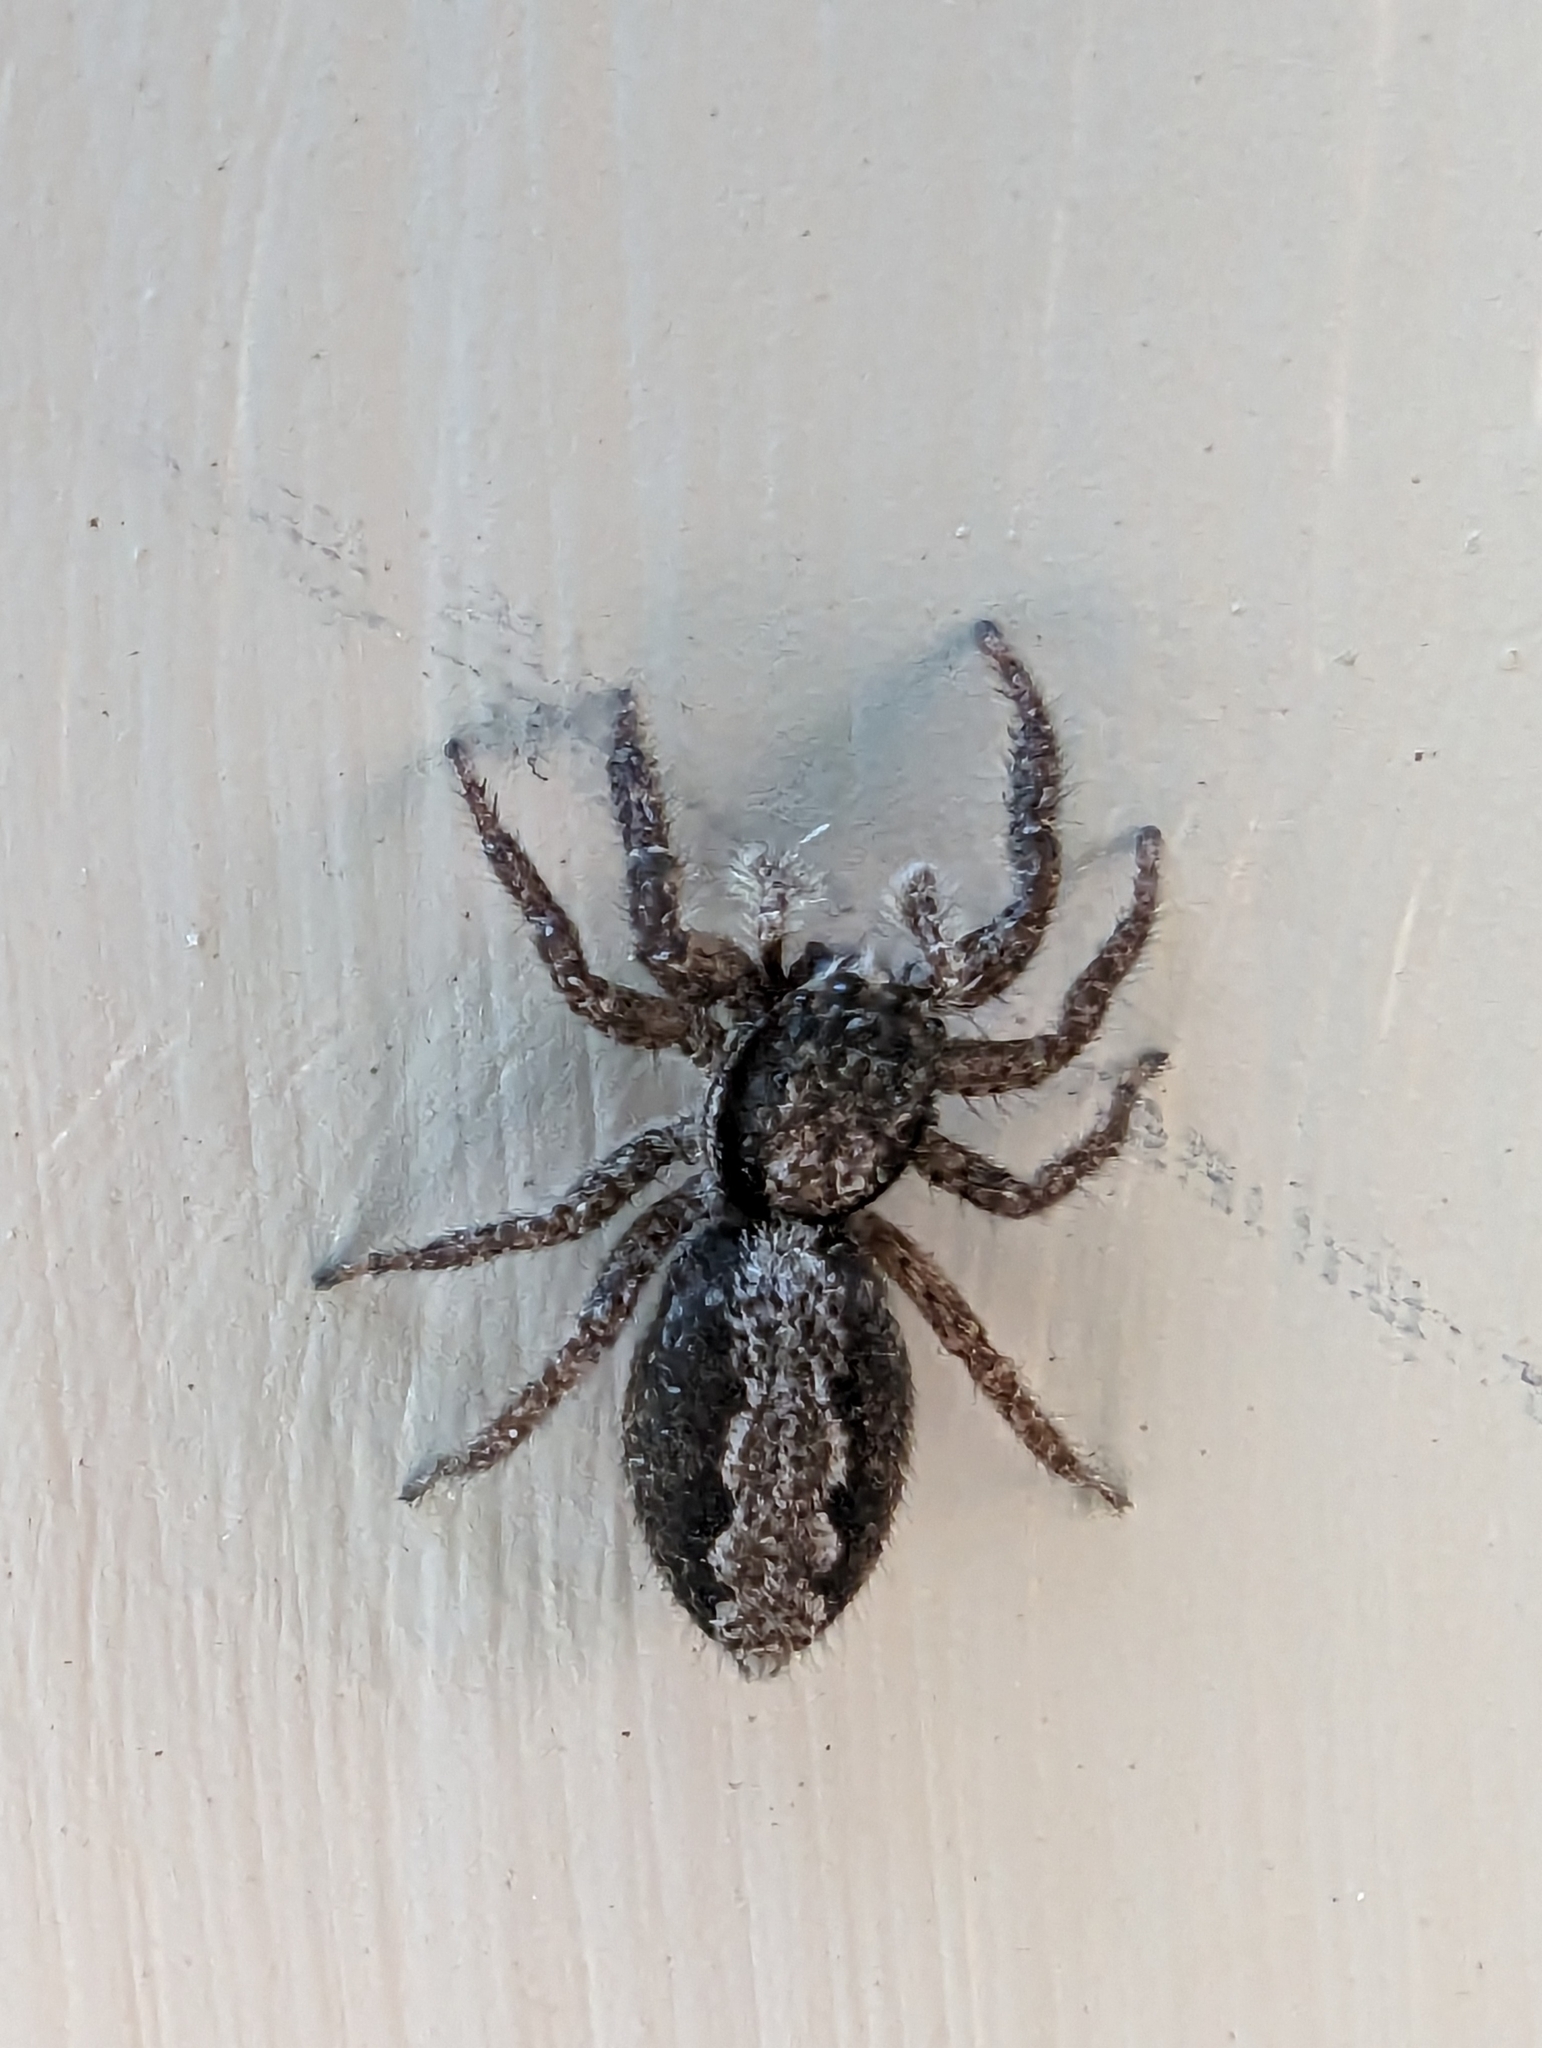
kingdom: Animalia
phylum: Arthropoda
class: Arachnida
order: Araneae
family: Salticidae
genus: Platycryptus
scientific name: Platycryptus californicus
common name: Jumping spiders
